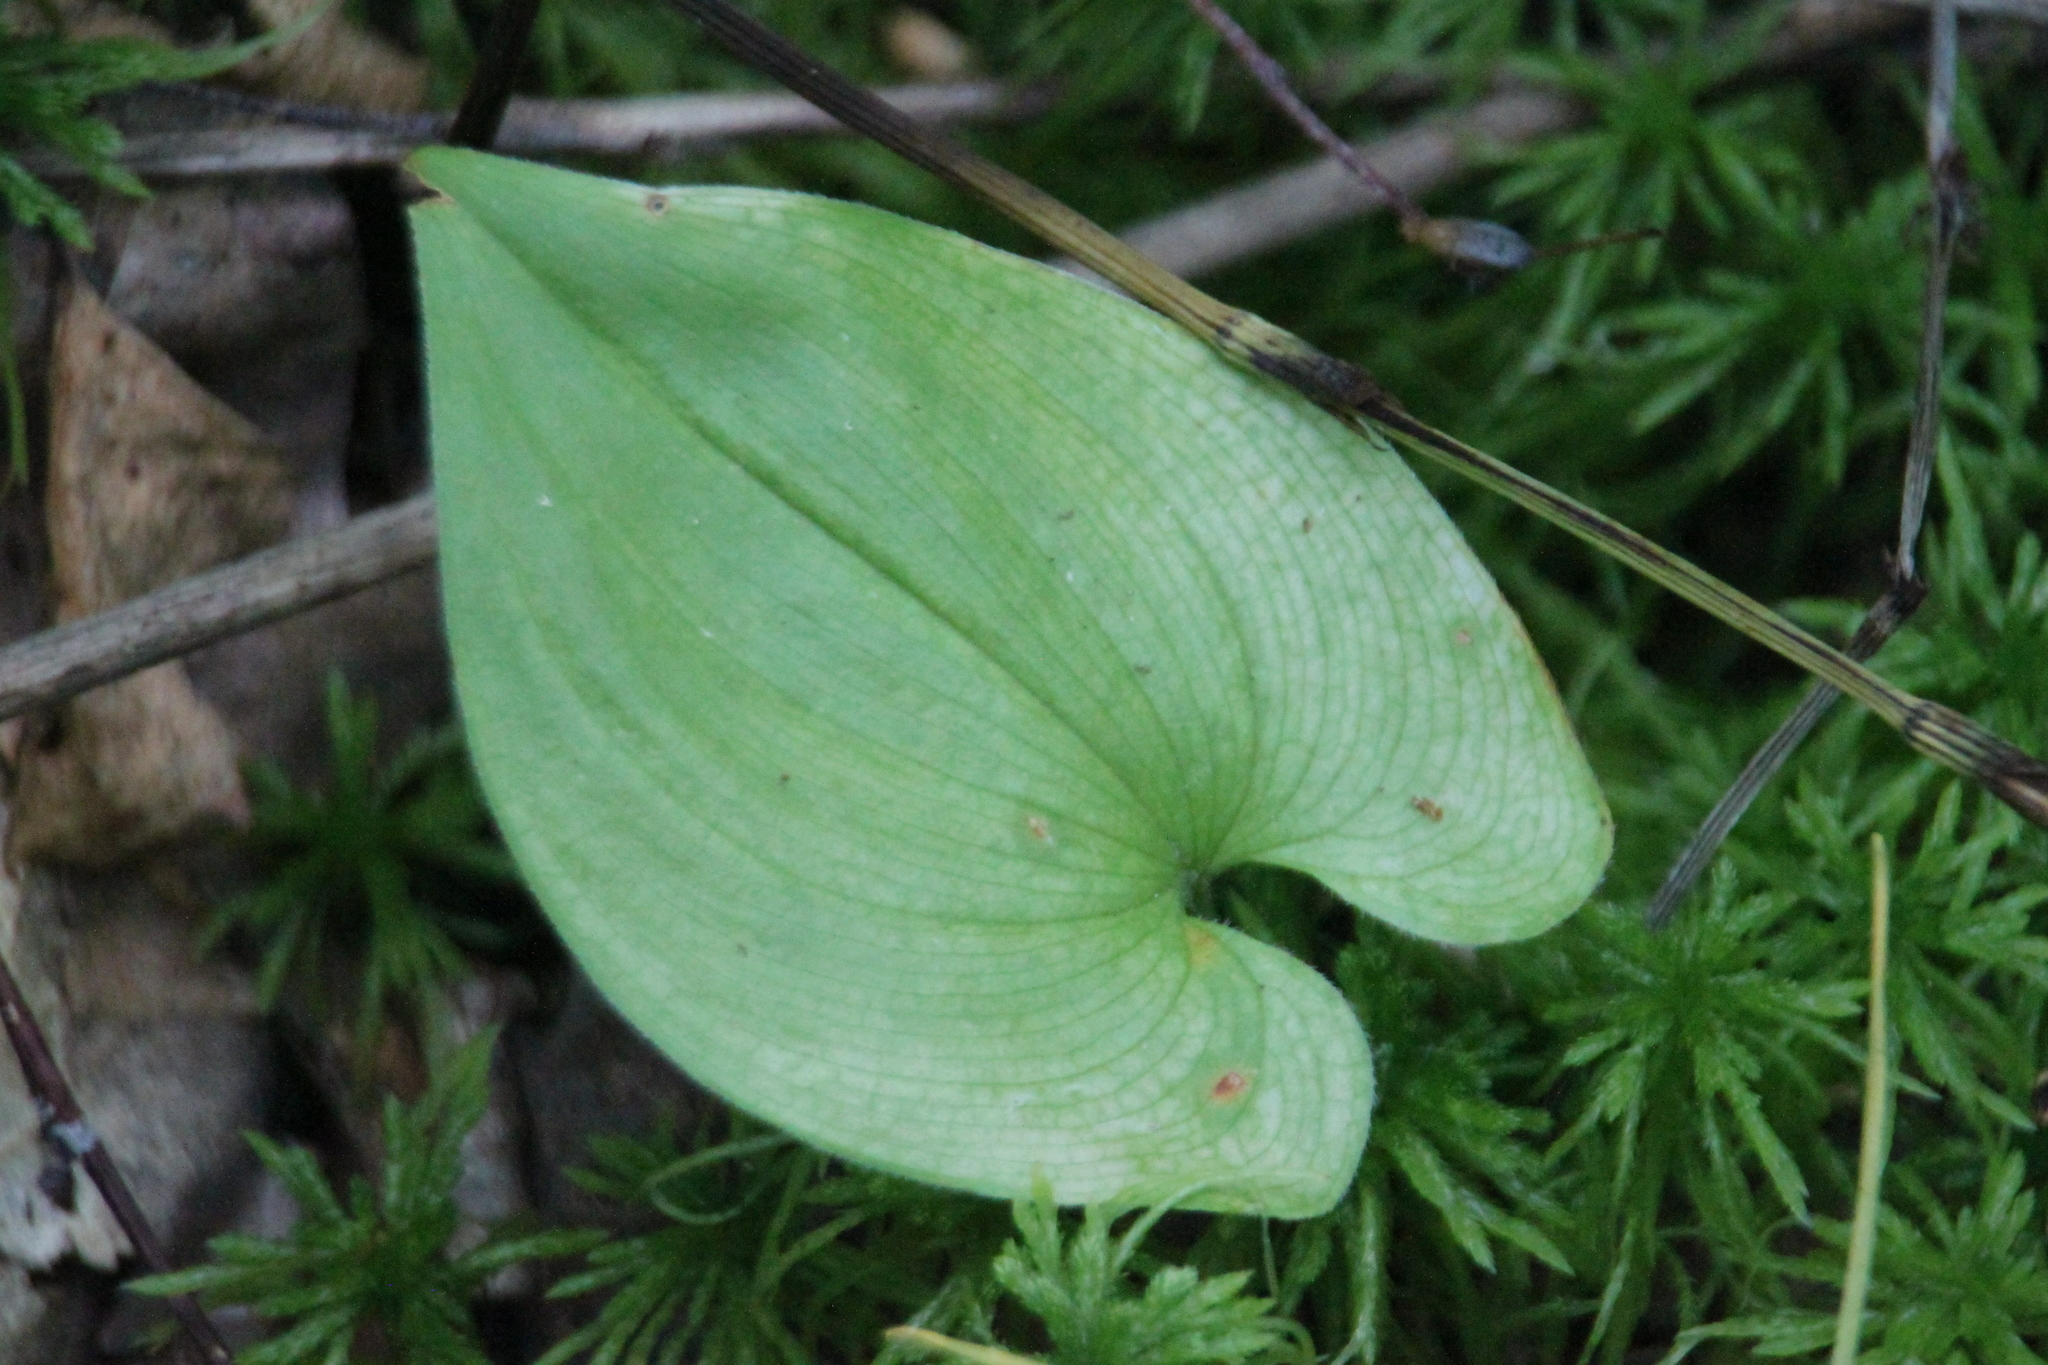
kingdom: Plantae
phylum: Tracheophyta
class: Liliopsida
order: Asparagales
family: Asparagaceae
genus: Maianthemum
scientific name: Maianthemum bifolium
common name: May lily
